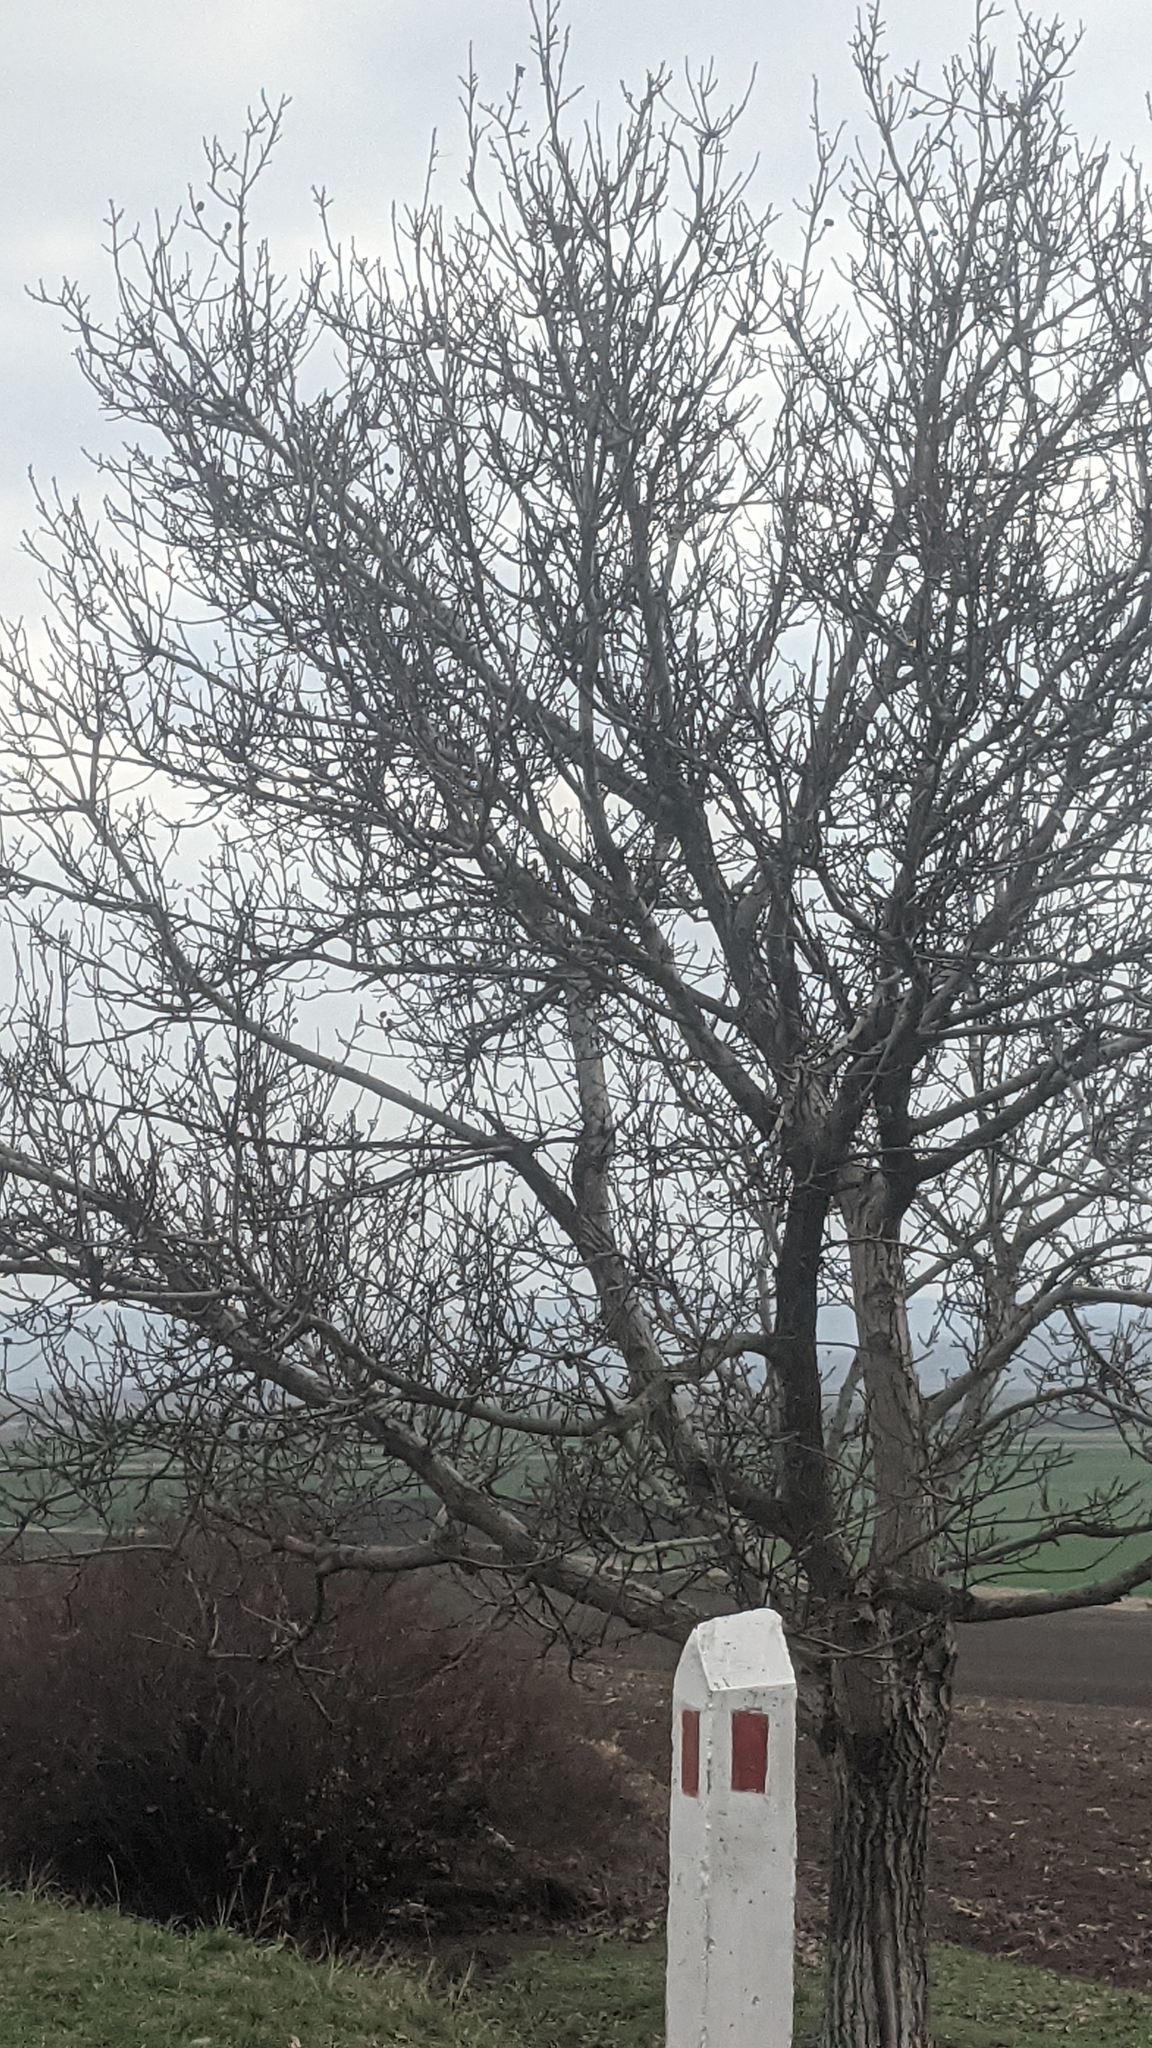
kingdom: Plantae
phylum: Tracheophyta
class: Magnoliopsida
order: Fagales
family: Juglandaceae
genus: Juglans
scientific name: Juglans regia
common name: Walnut
